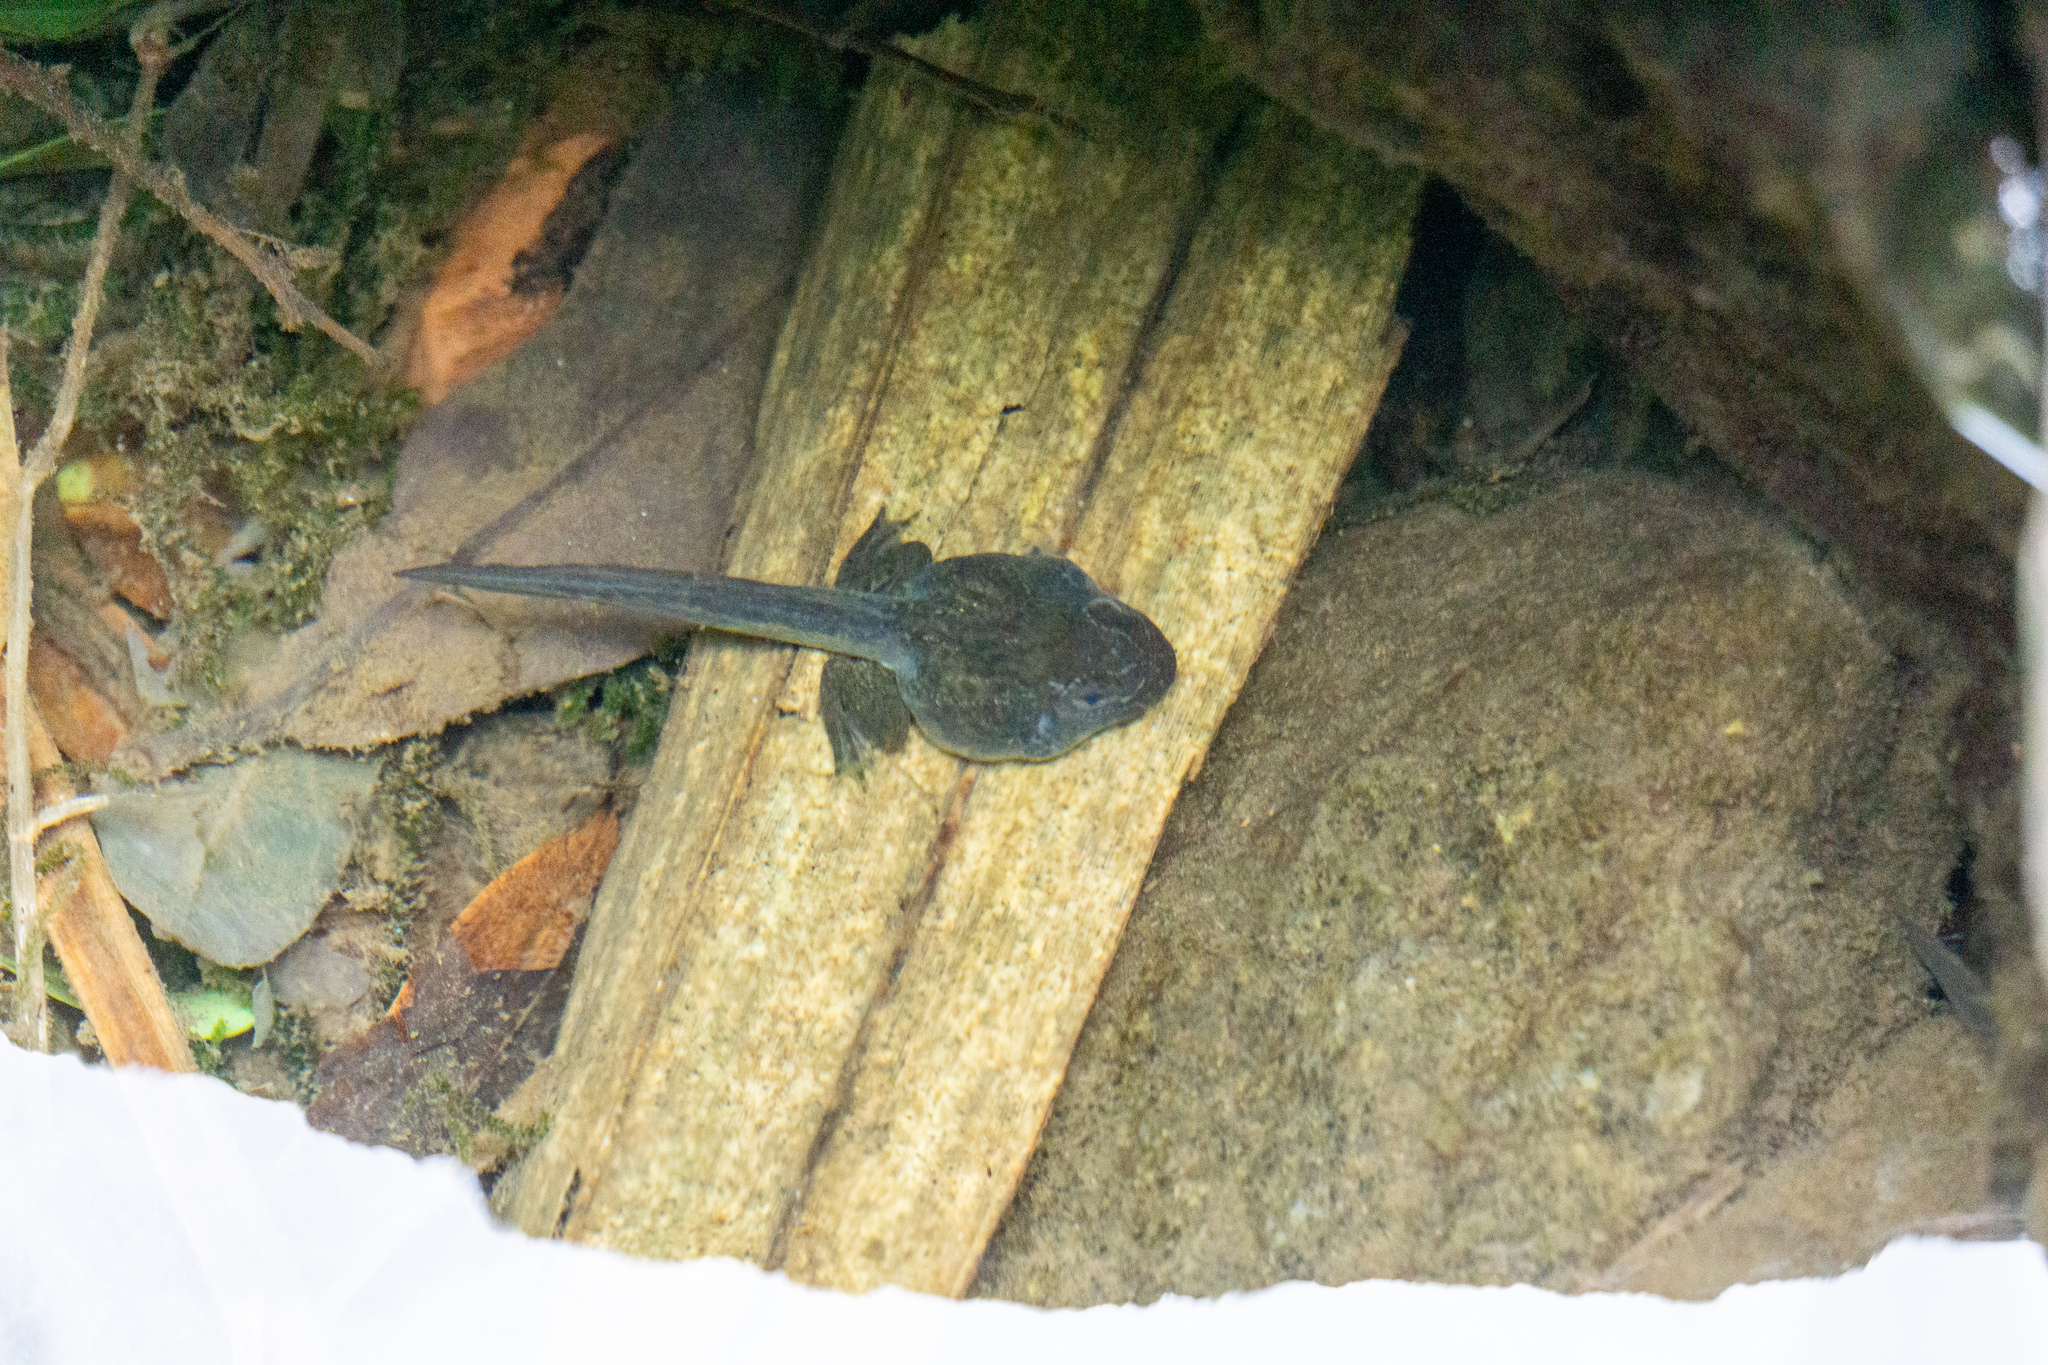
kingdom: Animalia
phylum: Chordata
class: Amphibia
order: Anura
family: Ranidae
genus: Glandirana
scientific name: Glandirana rugosa
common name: Japanese wrinkled frog
